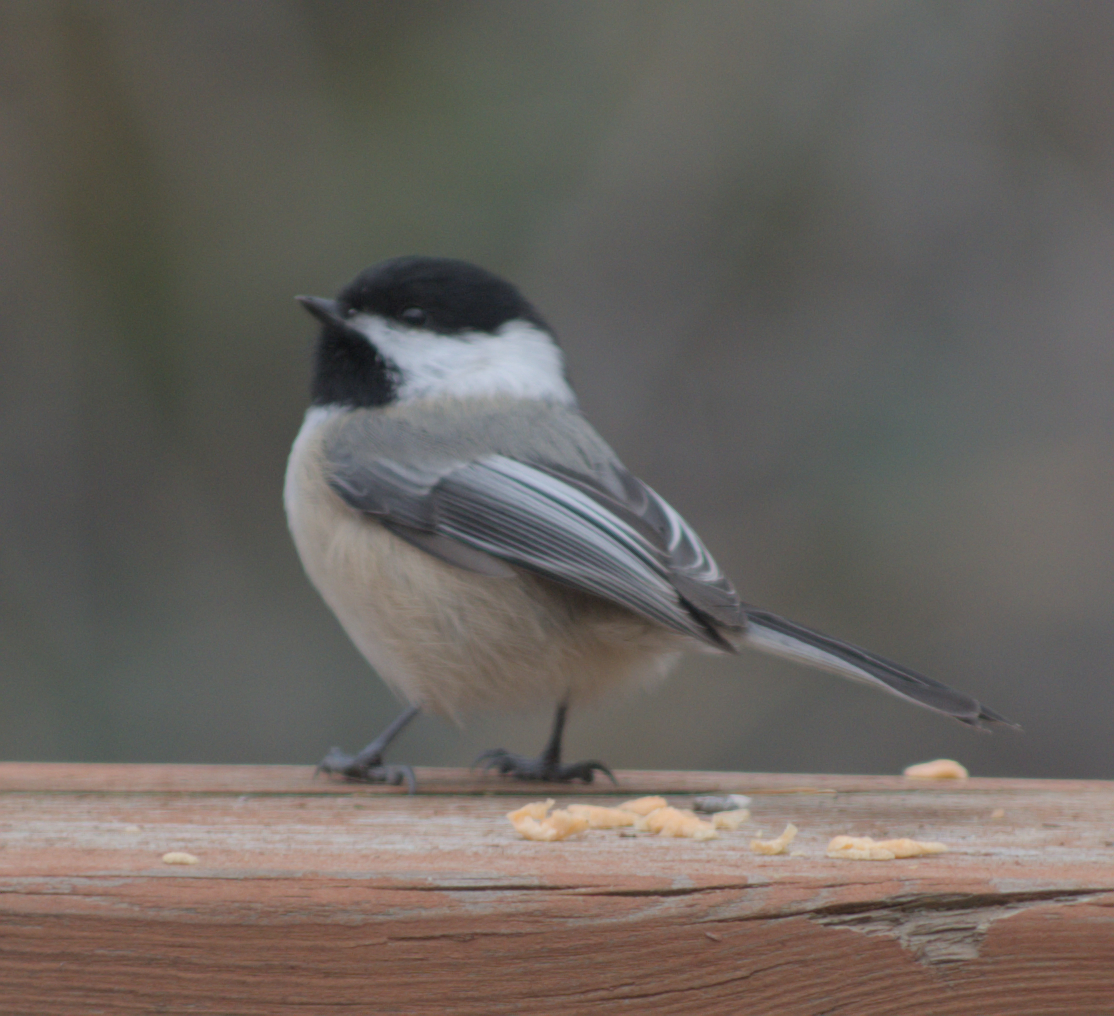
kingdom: Animalia
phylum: Chordata
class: Aves
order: Passeriformes
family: Paridae
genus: Poecile
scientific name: Poecile atricapillus
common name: Black-capped chickadee
